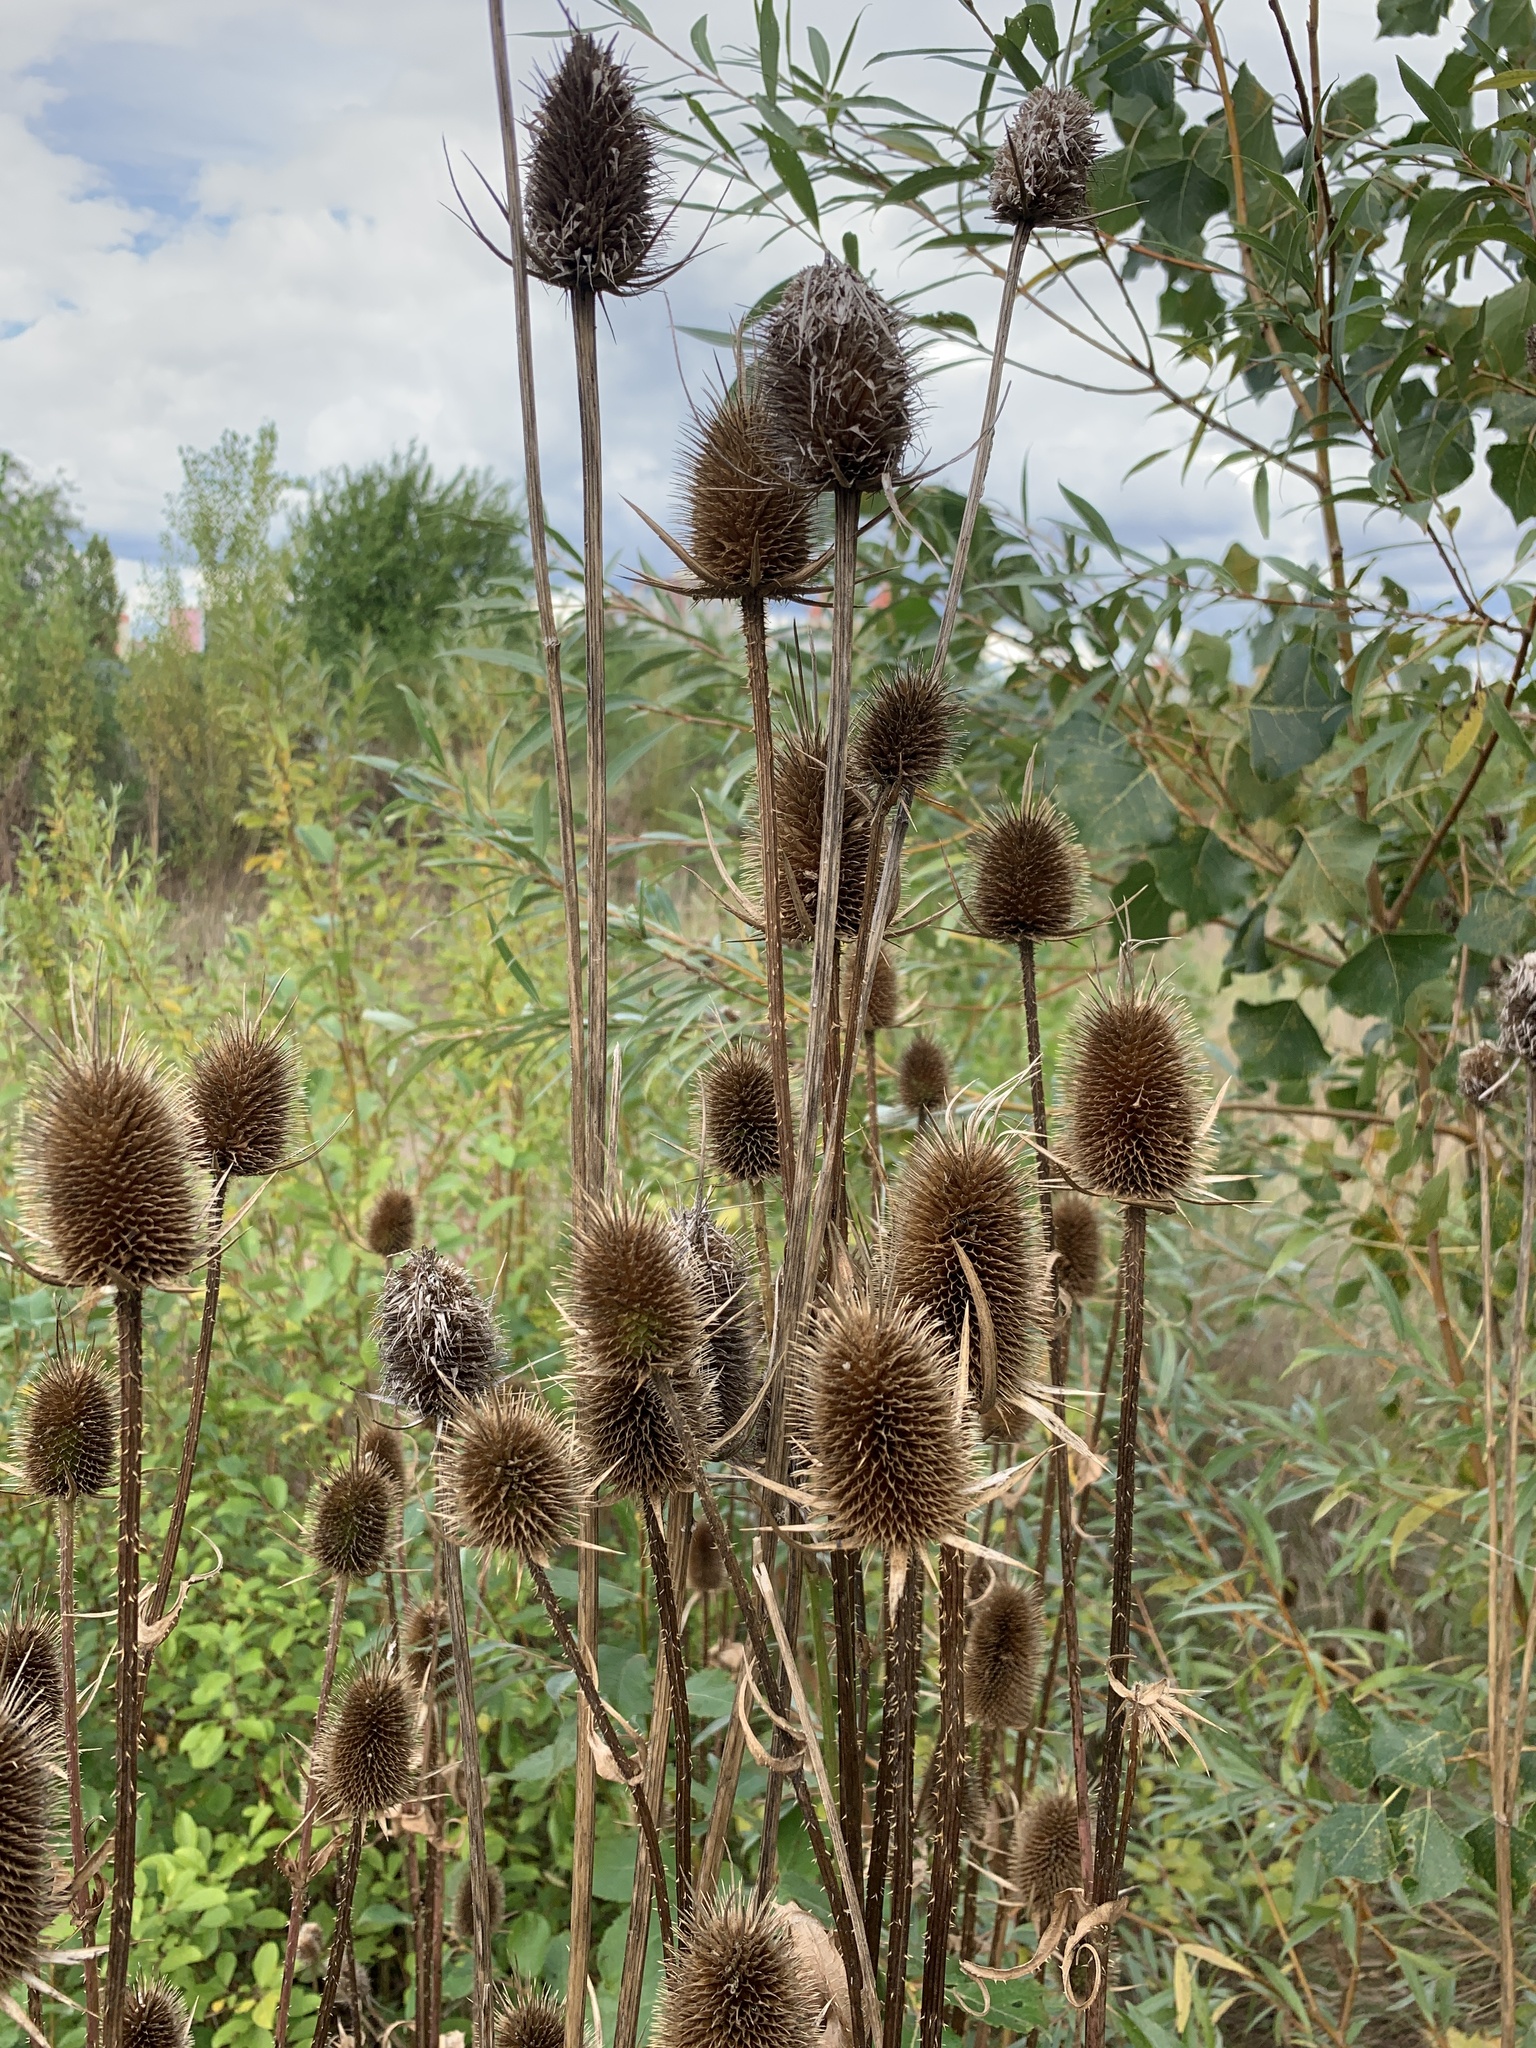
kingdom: Plantae
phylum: Tracheophyta
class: Magnoliopsida
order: Dipsacales
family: Caprifoliaceae
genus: Dipsacus
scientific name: Dipsacus laciniatus
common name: Cut-leaved teasel
